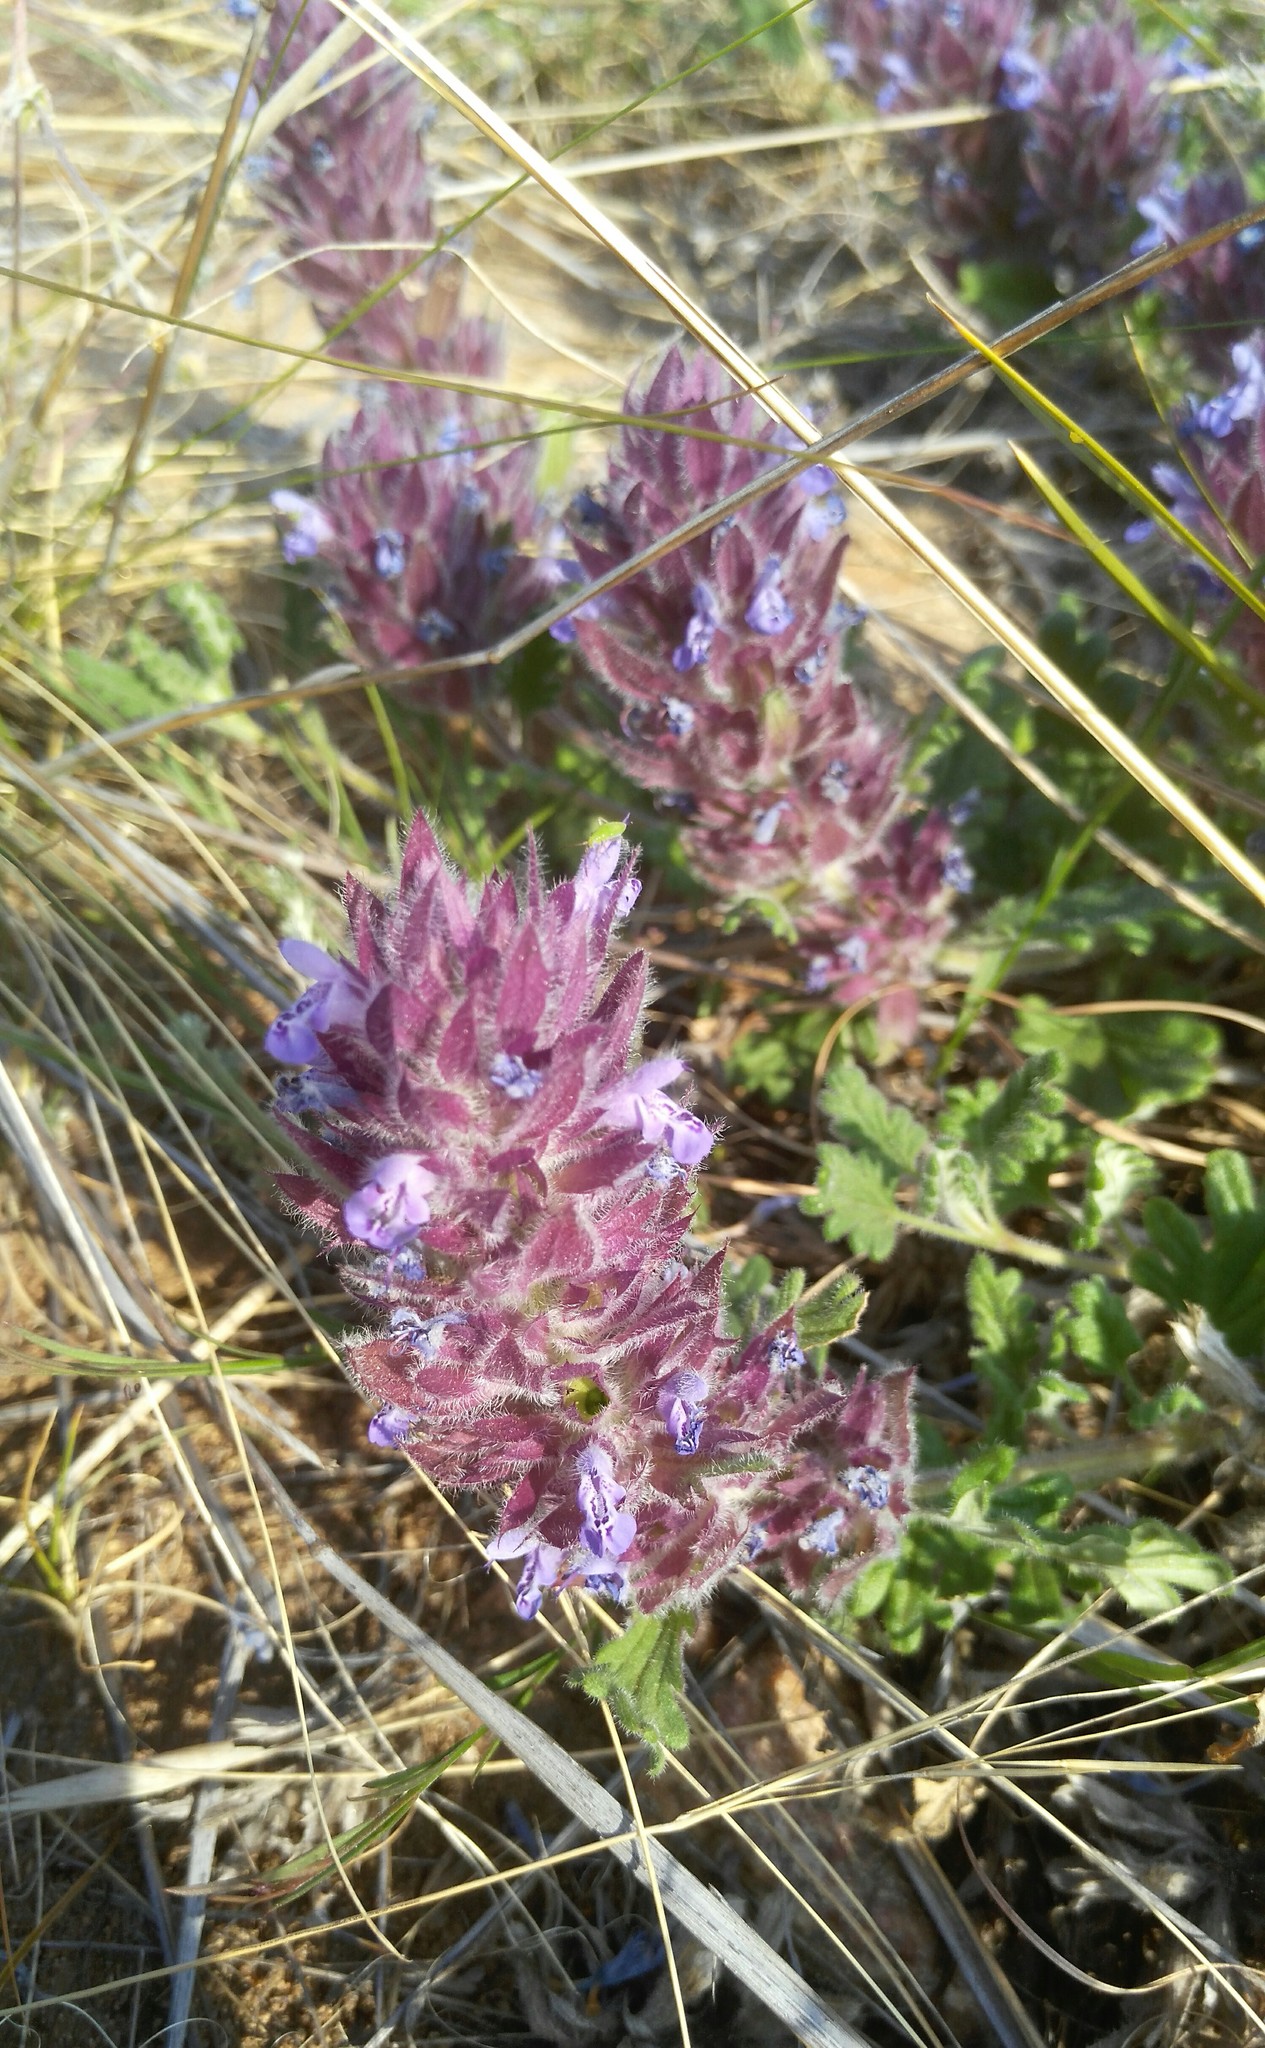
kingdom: Plantae
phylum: Tracheophyta
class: Magnoliopsida
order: Lamiales
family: Lamiaceae
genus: Dracocephalum
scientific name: Dracocephalum pinnatum
